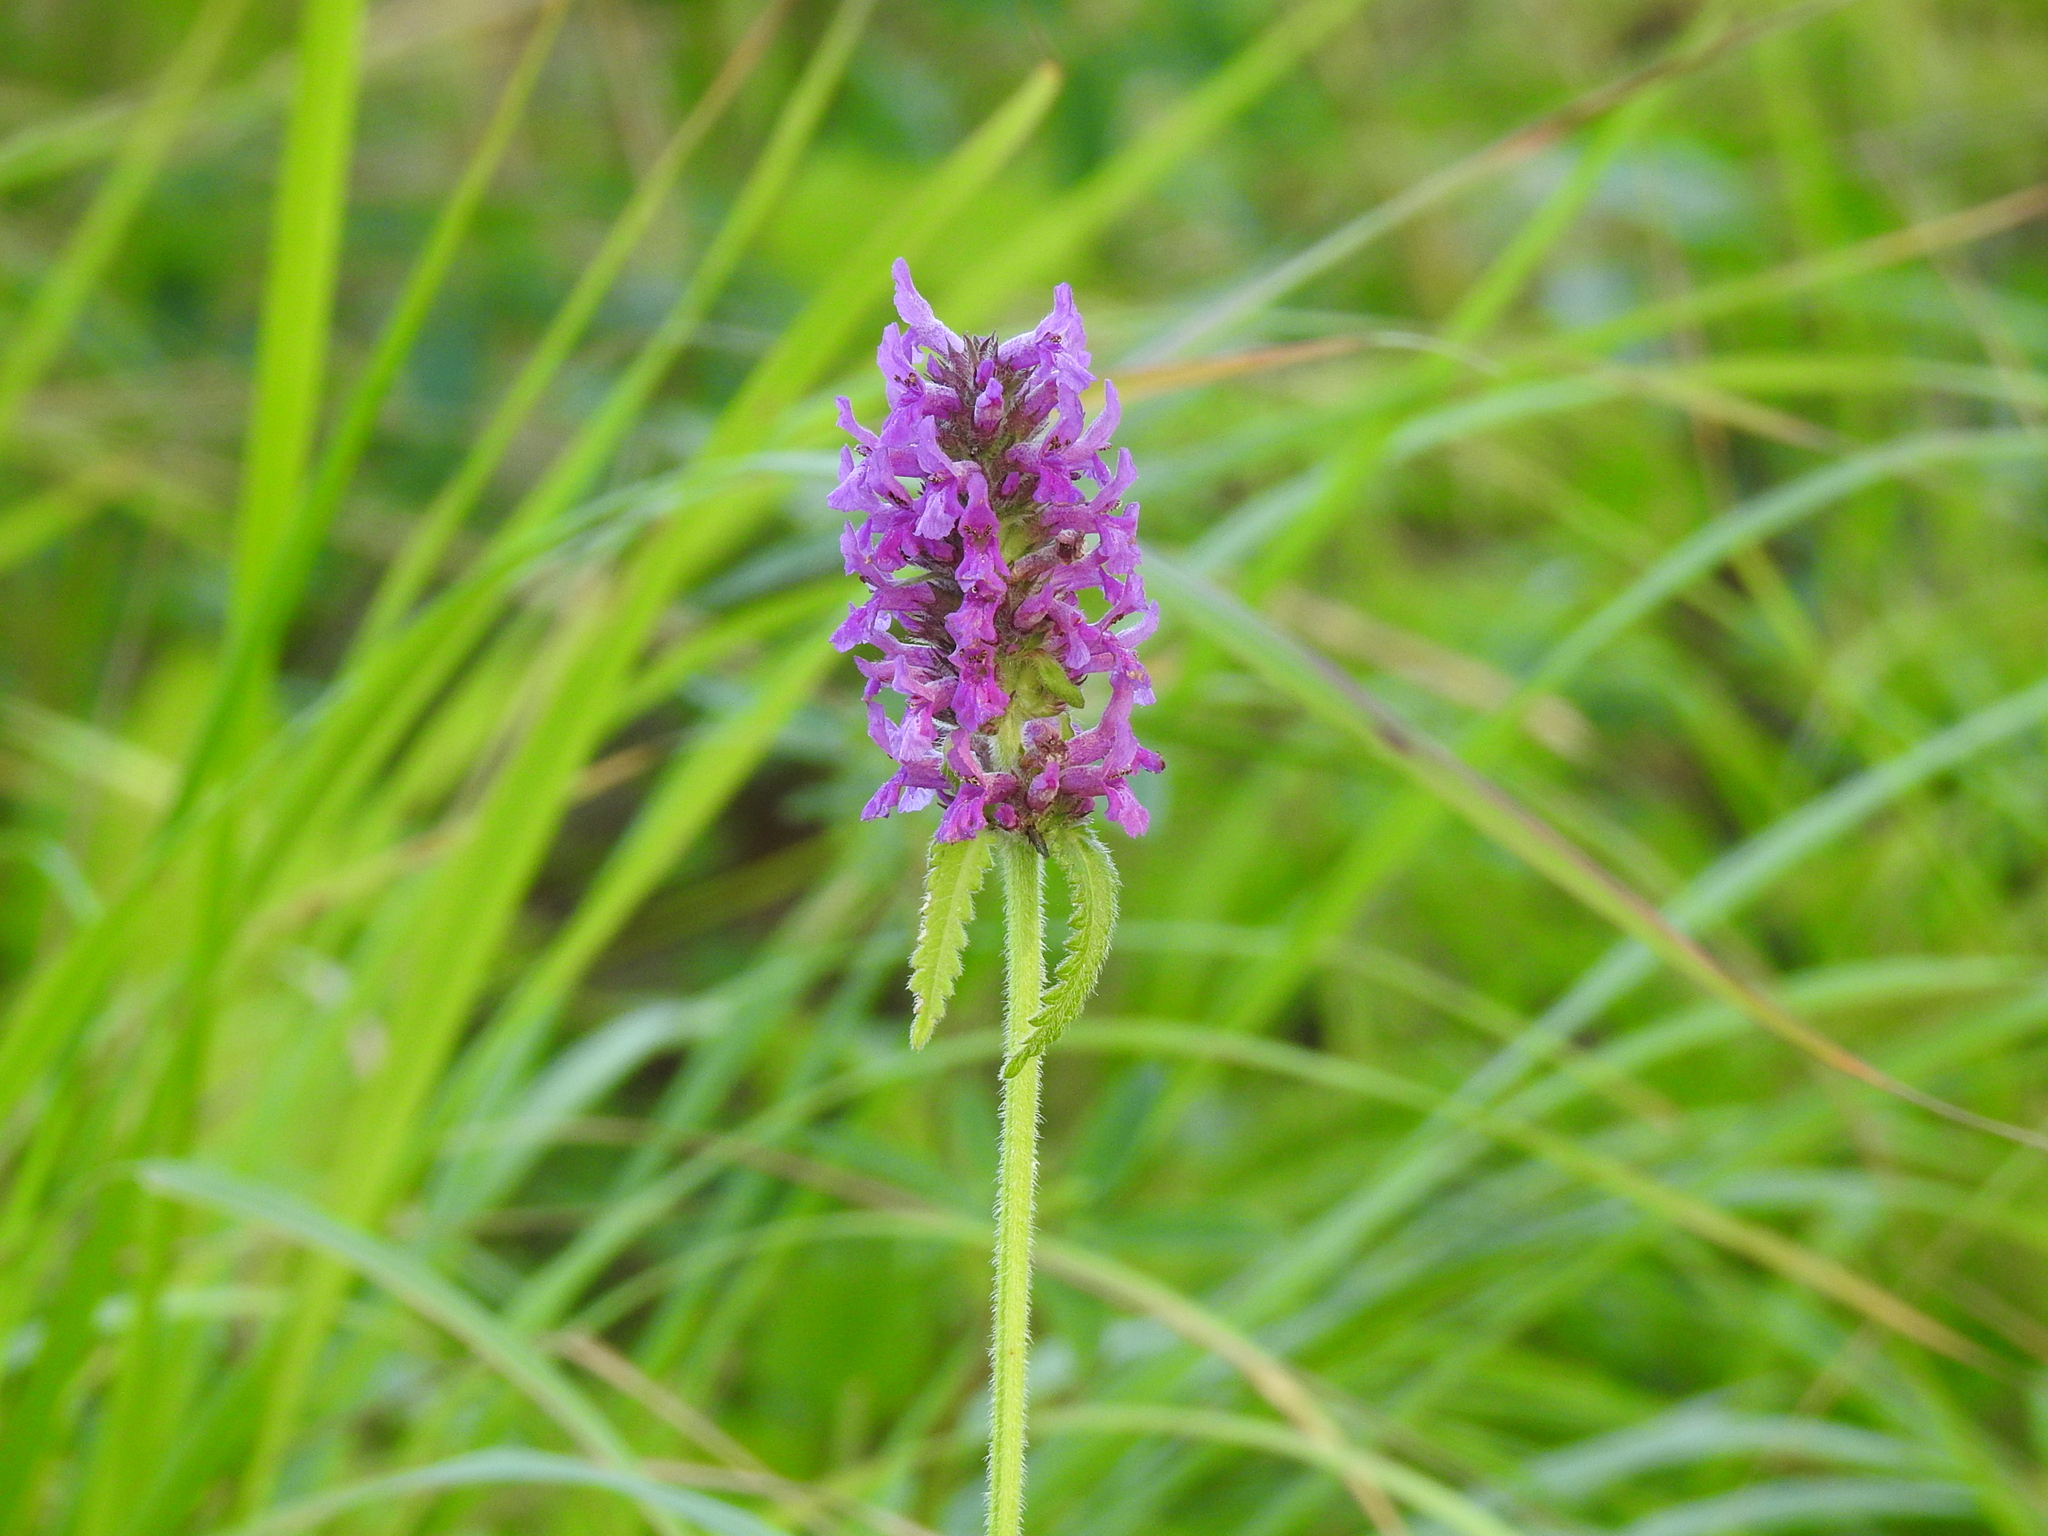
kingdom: Plantae
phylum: Tracheophyta
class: Magnoliopsida
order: Lamiales
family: Lamiaceae
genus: Betonica
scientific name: Betonica officinalis
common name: Bishop's-wort
